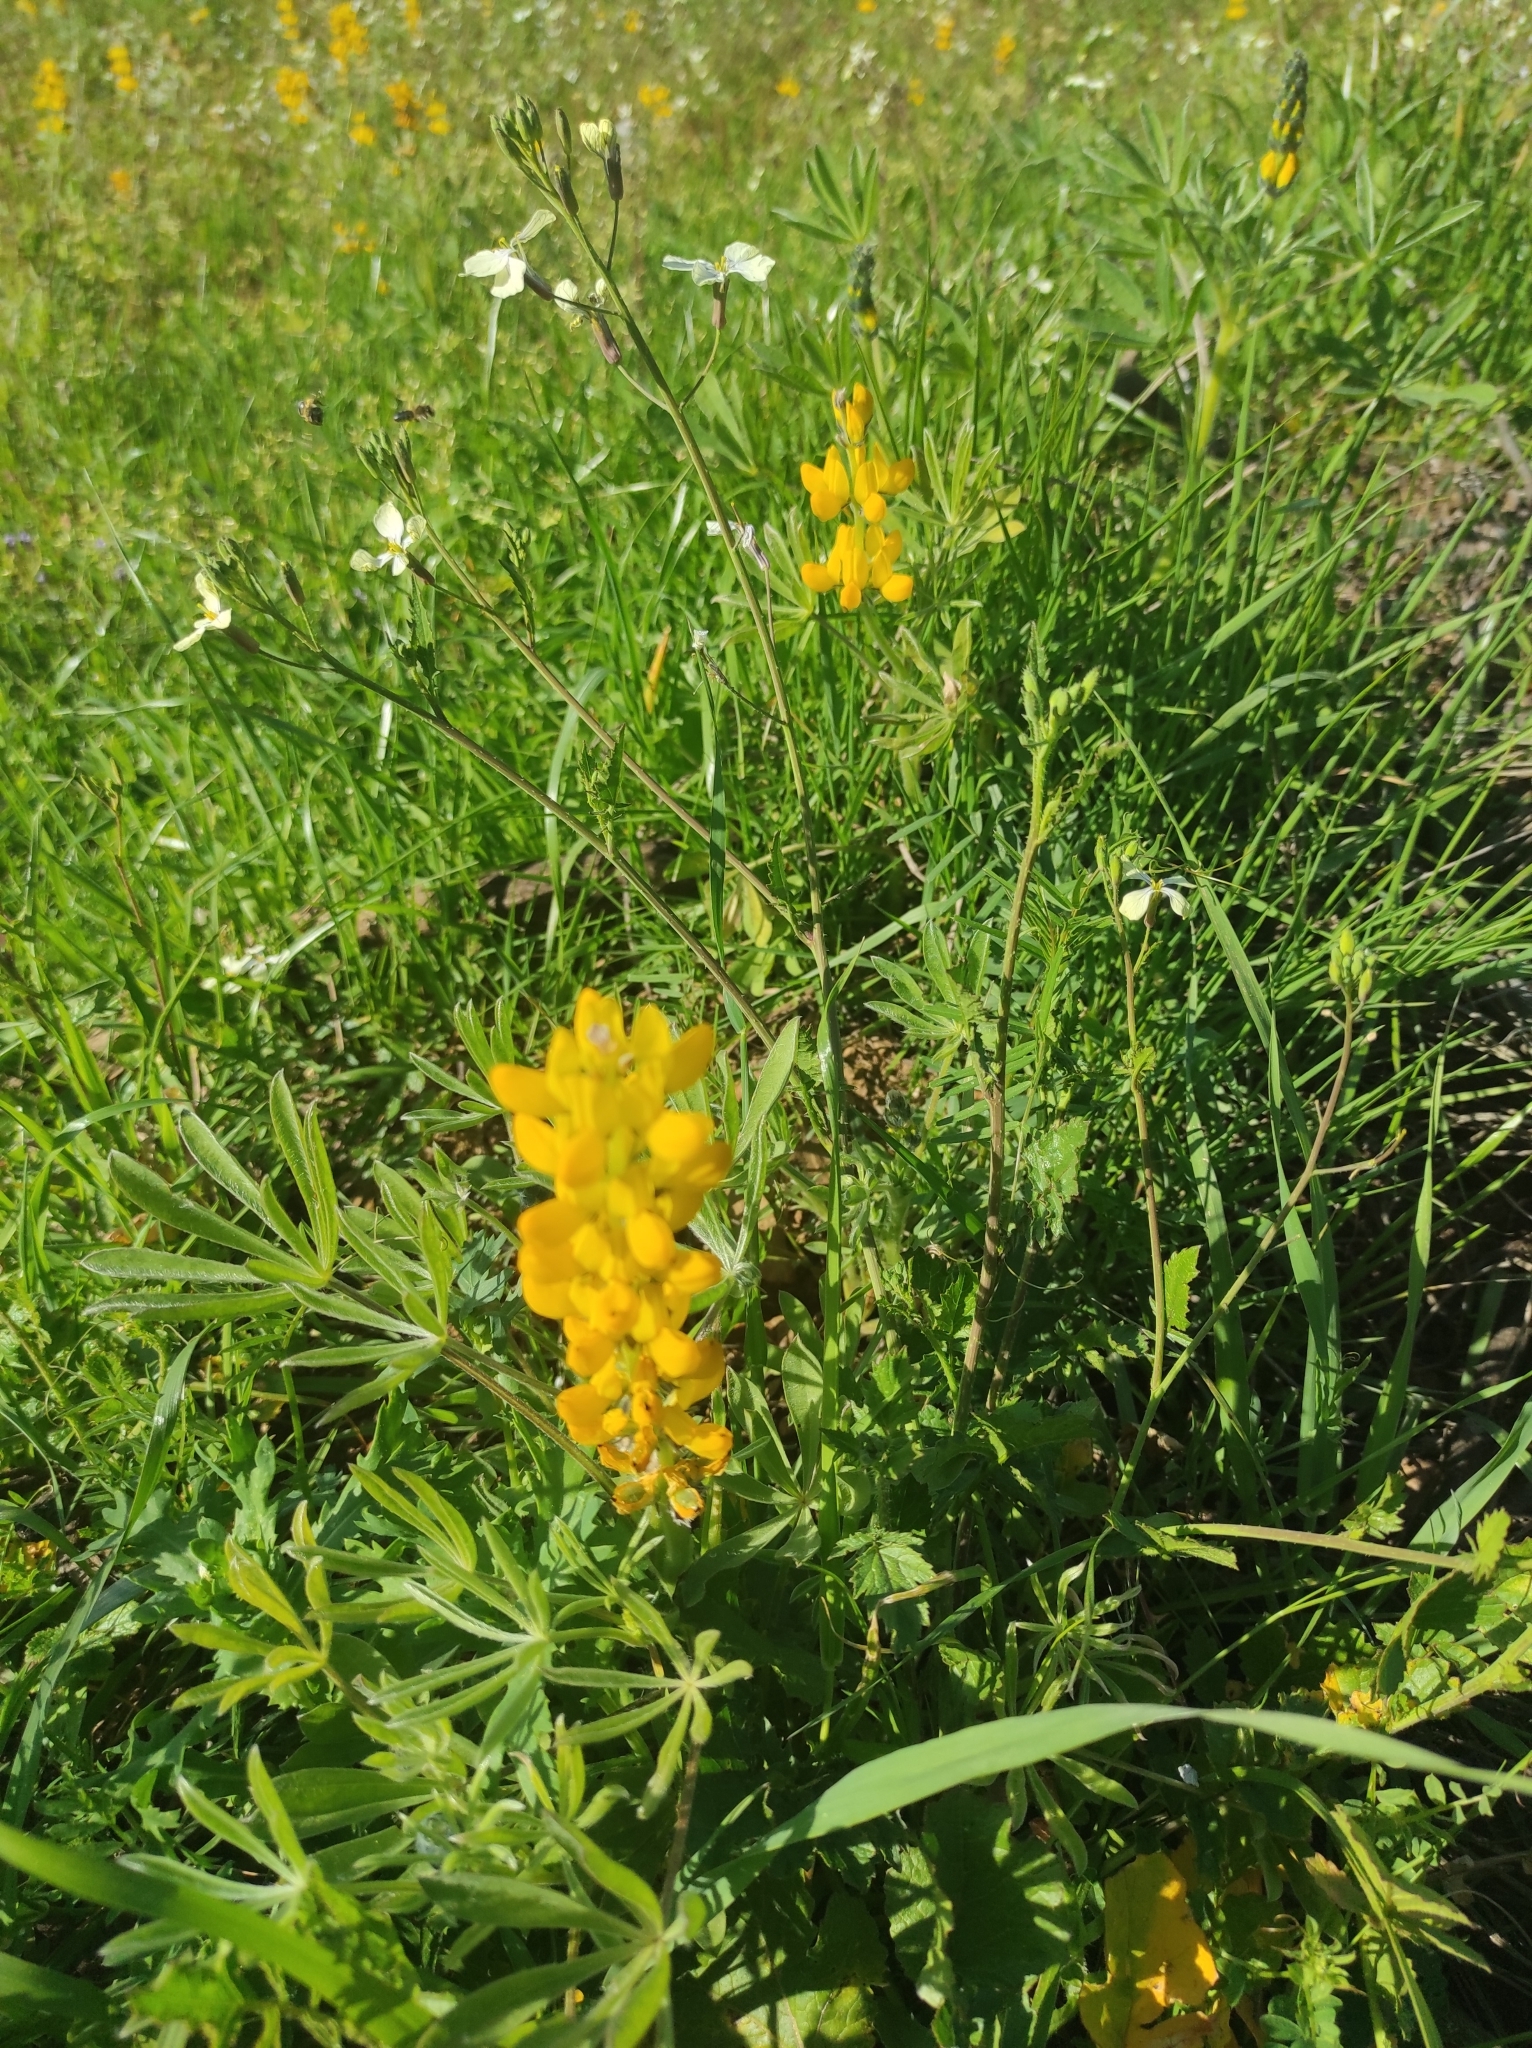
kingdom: Plantae
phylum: Tracheophyta
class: Magnoliopsida
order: Fabales
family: Fabaceae
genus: Lupinus
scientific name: Lupinus luteus
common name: European yellow lupine
